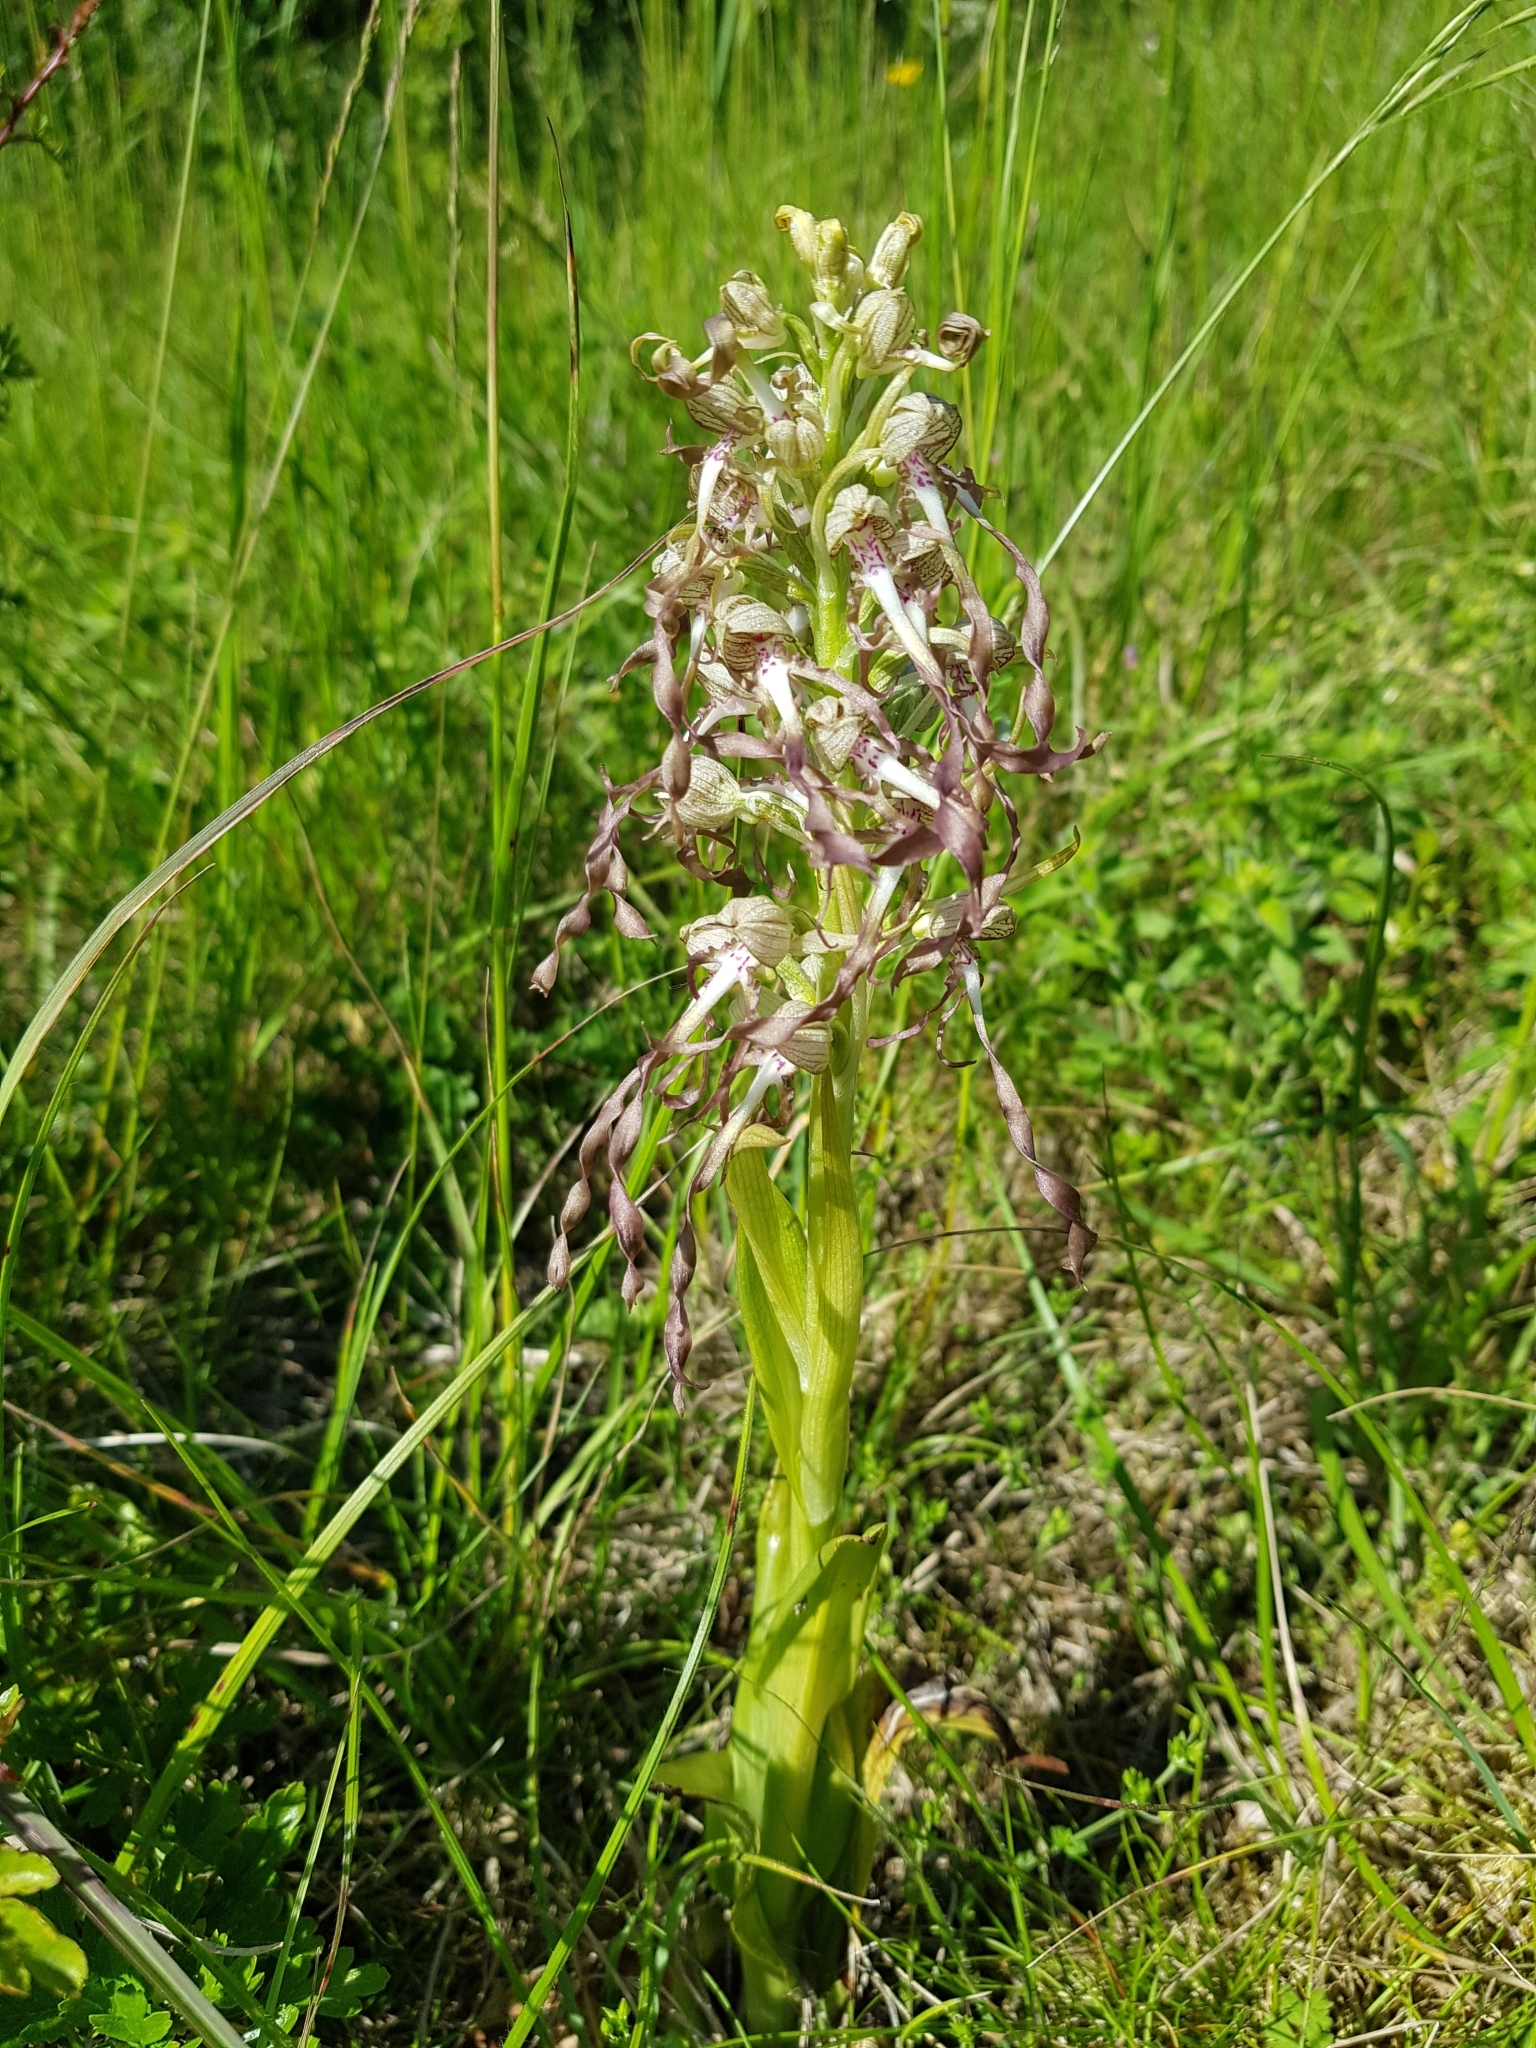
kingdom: Plantae
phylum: Tracheophyta
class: Liliopsida
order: Asparagales
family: Orchidaceae
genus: Himantoglossum
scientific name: Himantoglossum hircinum
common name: Lizard orchid
